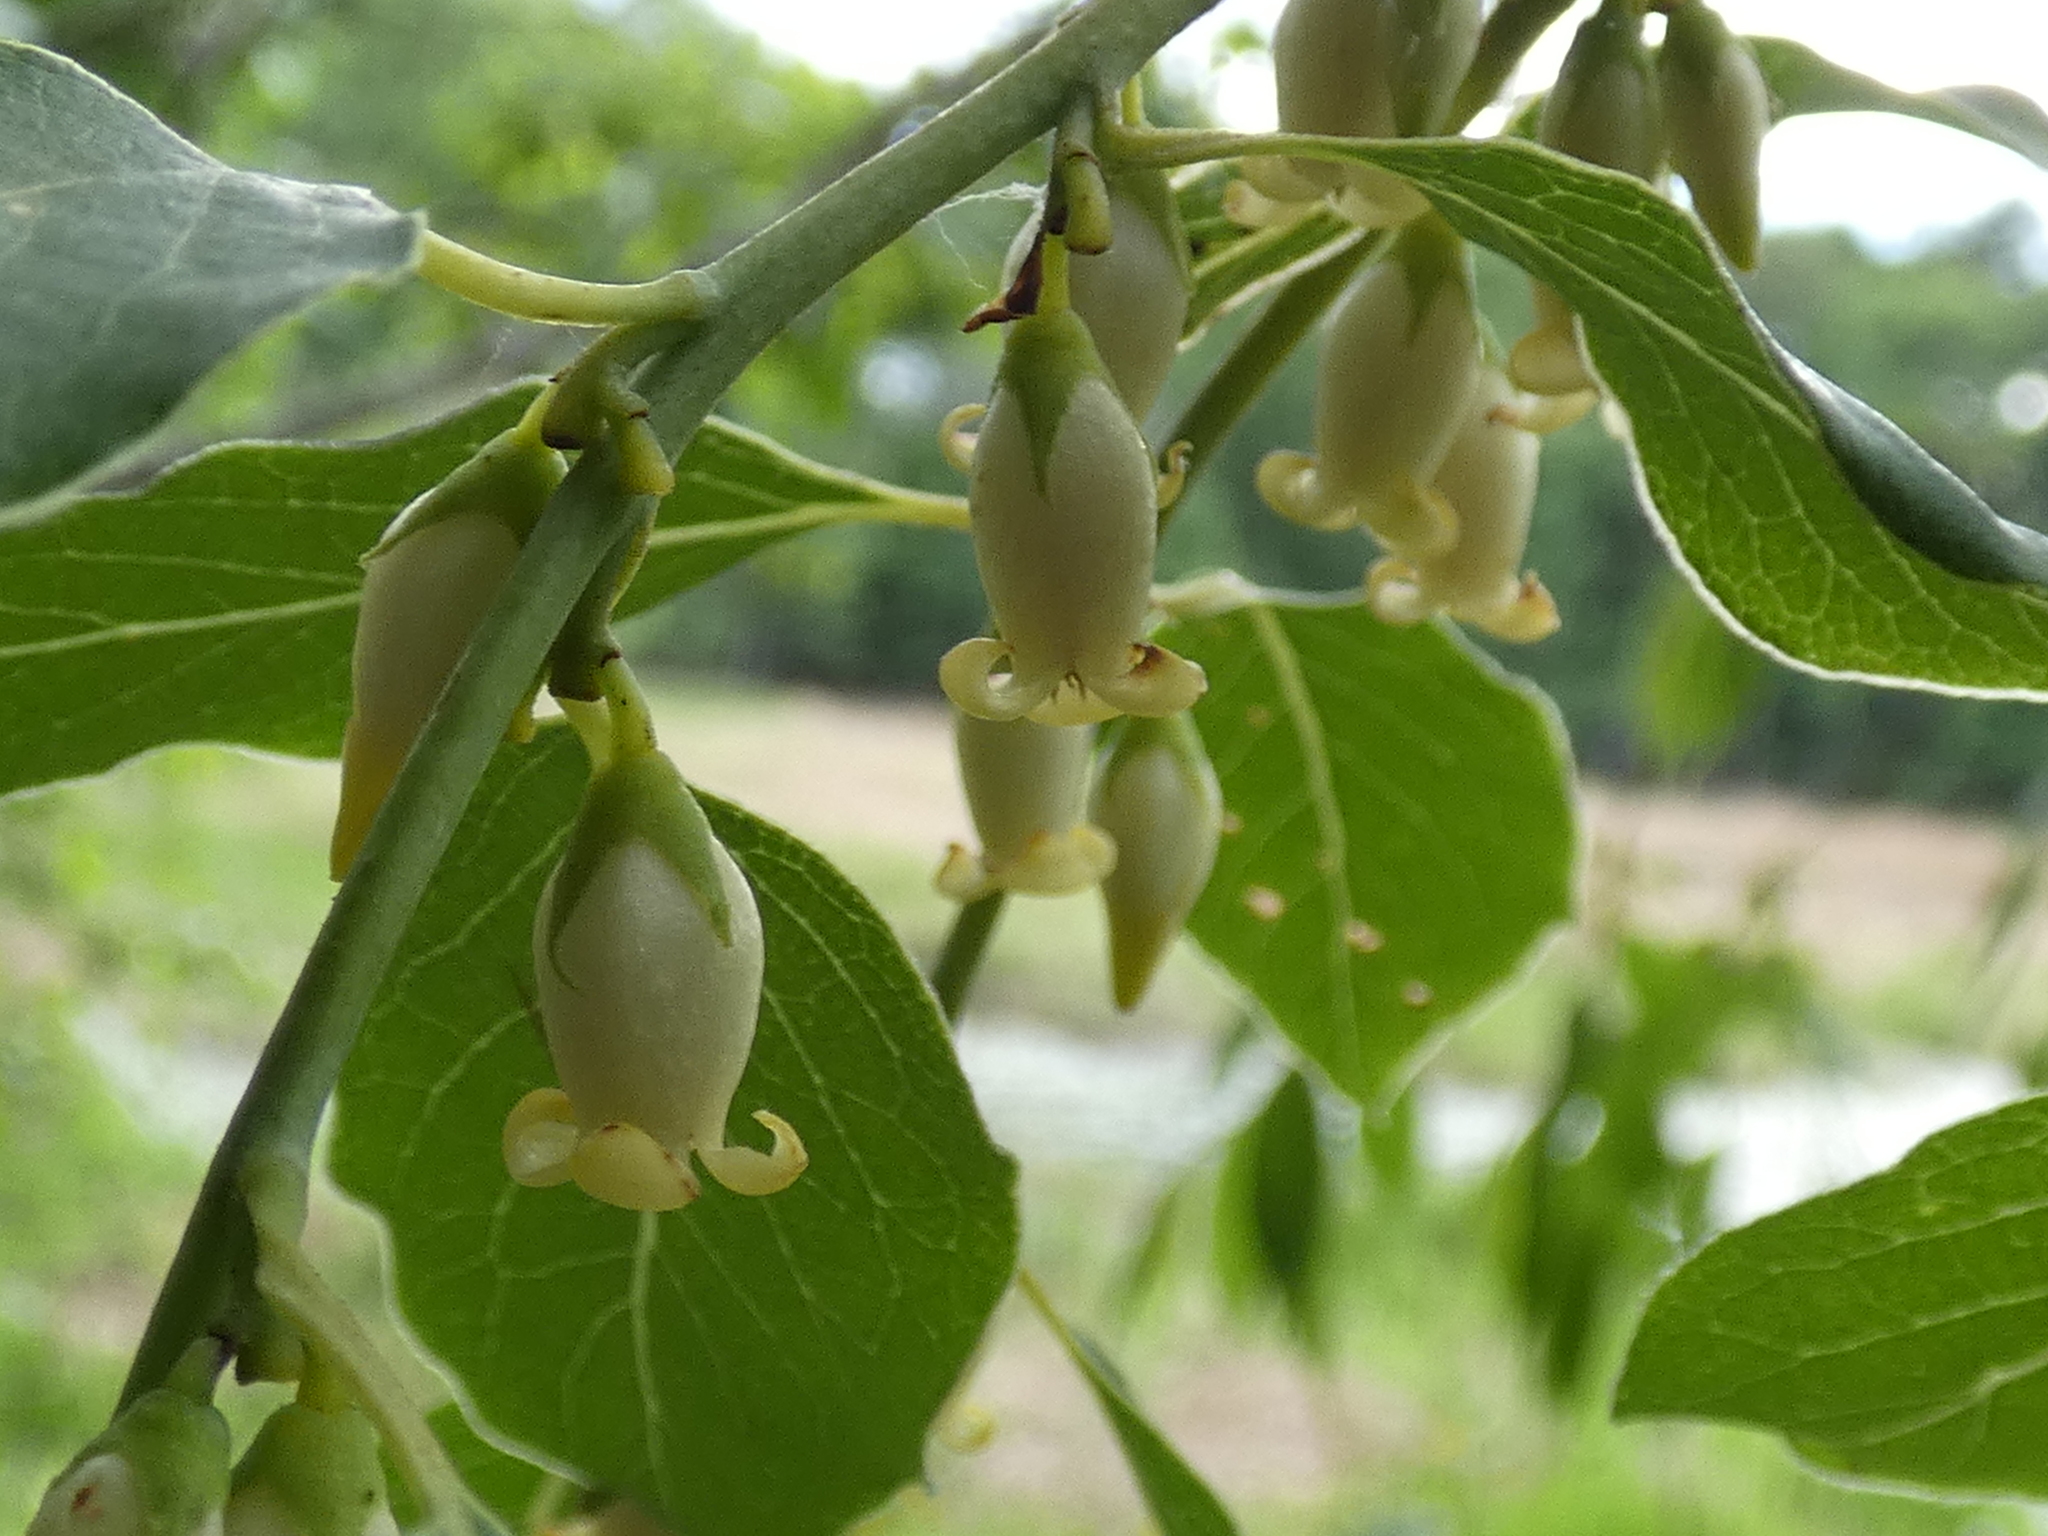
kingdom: Plantae
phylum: Tracheophyta
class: Magnoliopsida
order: Ericales
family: Ebenaceae
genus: Diospyros
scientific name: Diospyros virginiana
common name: Persimmon
